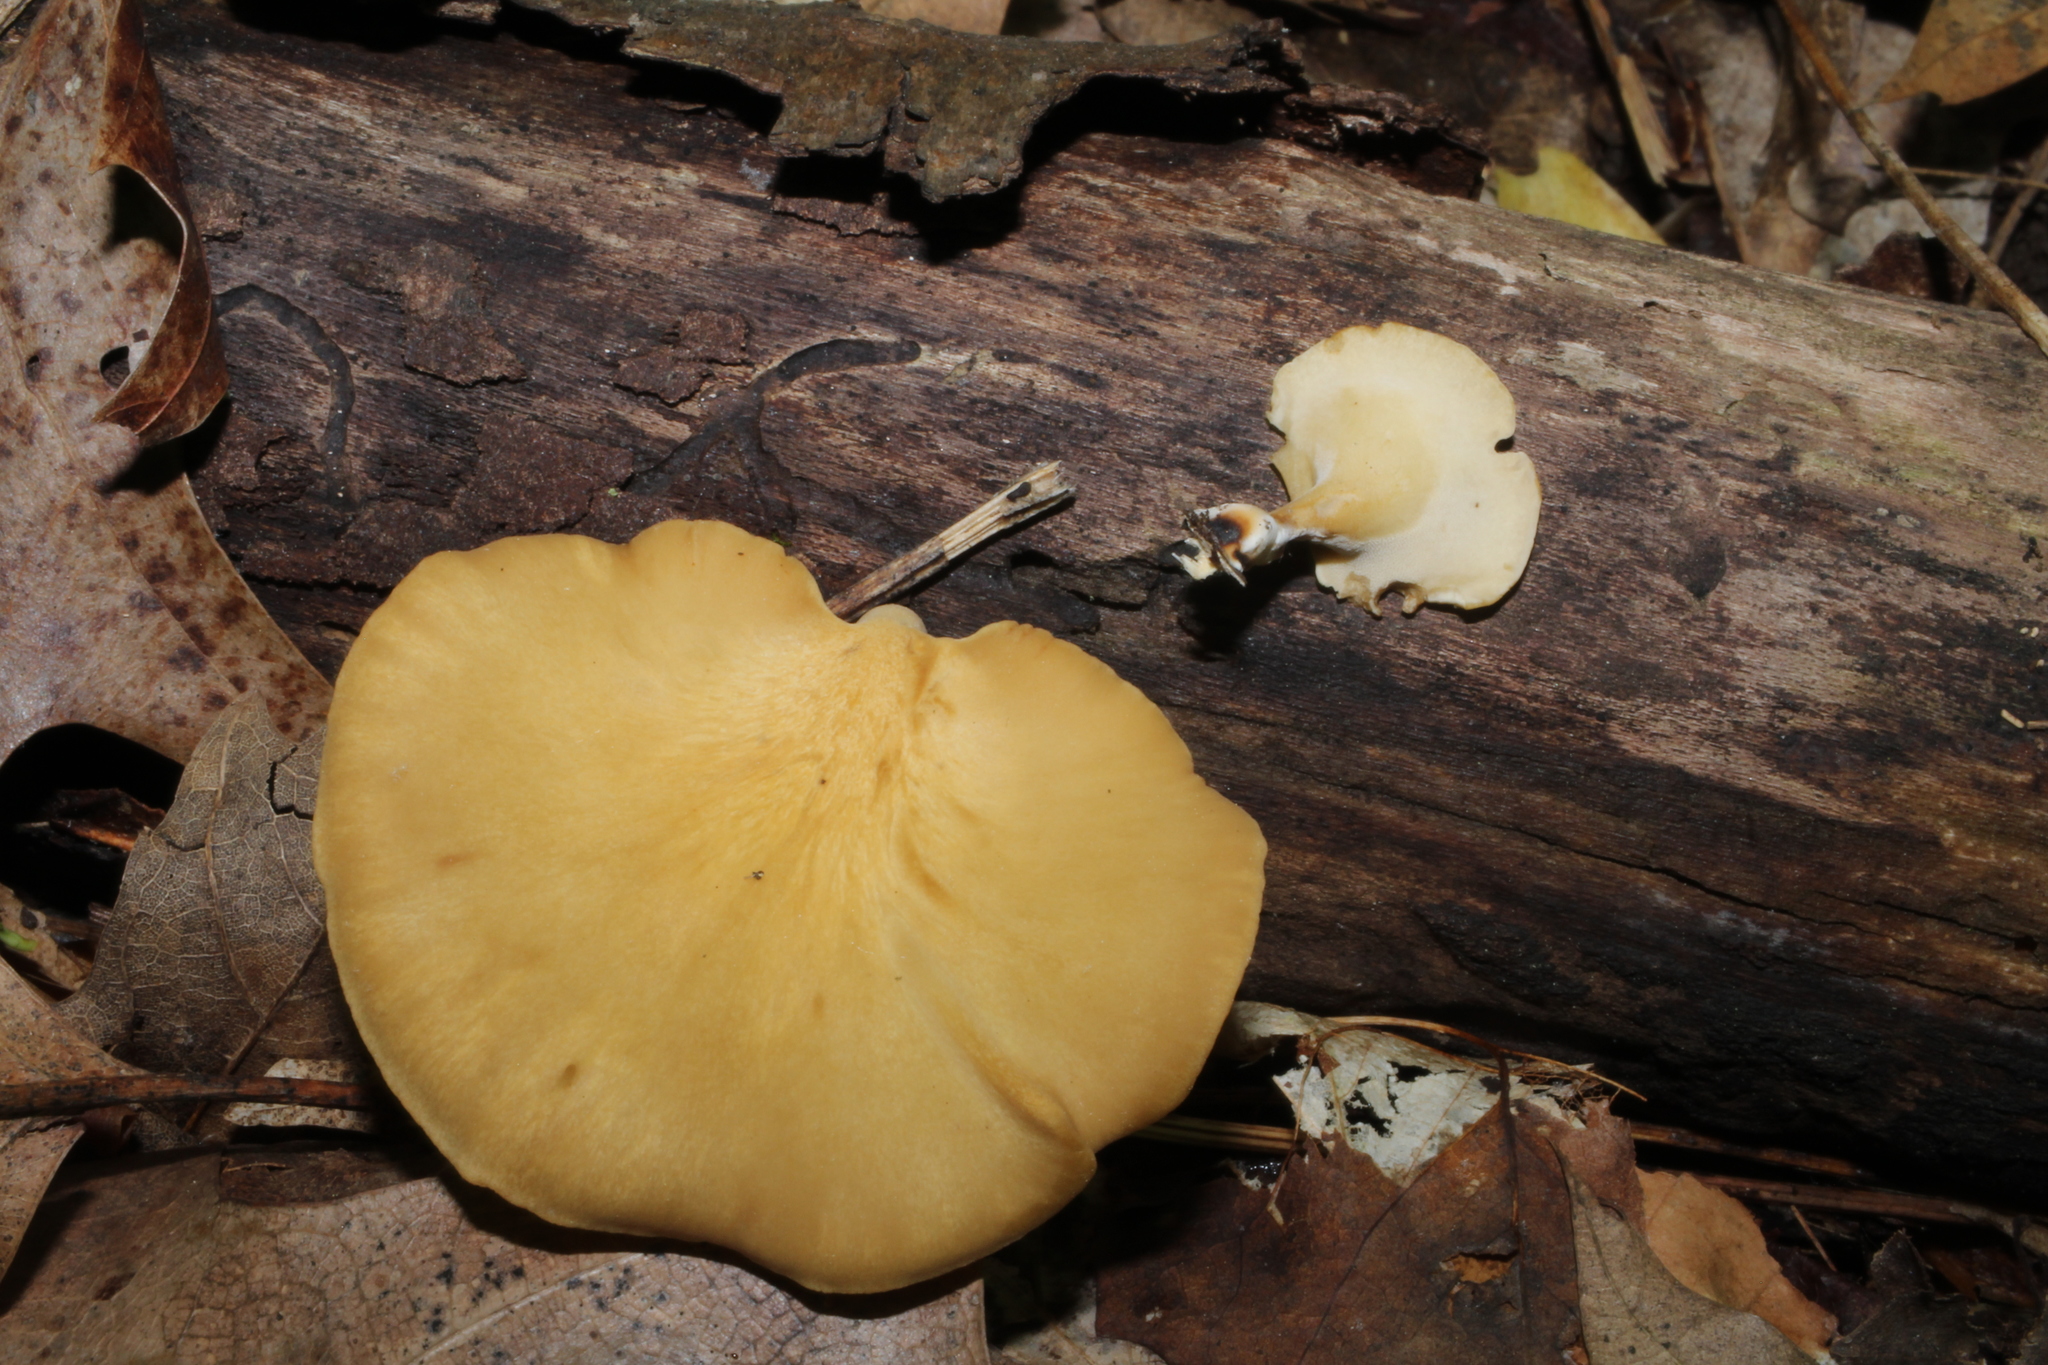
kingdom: Fungi
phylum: Basidiomycota
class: Agaricomycetes
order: Polyporales
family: Polyporaceae
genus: Cerioporus
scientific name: Cerioporus leptocephalus
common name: Blackfoot polypore
